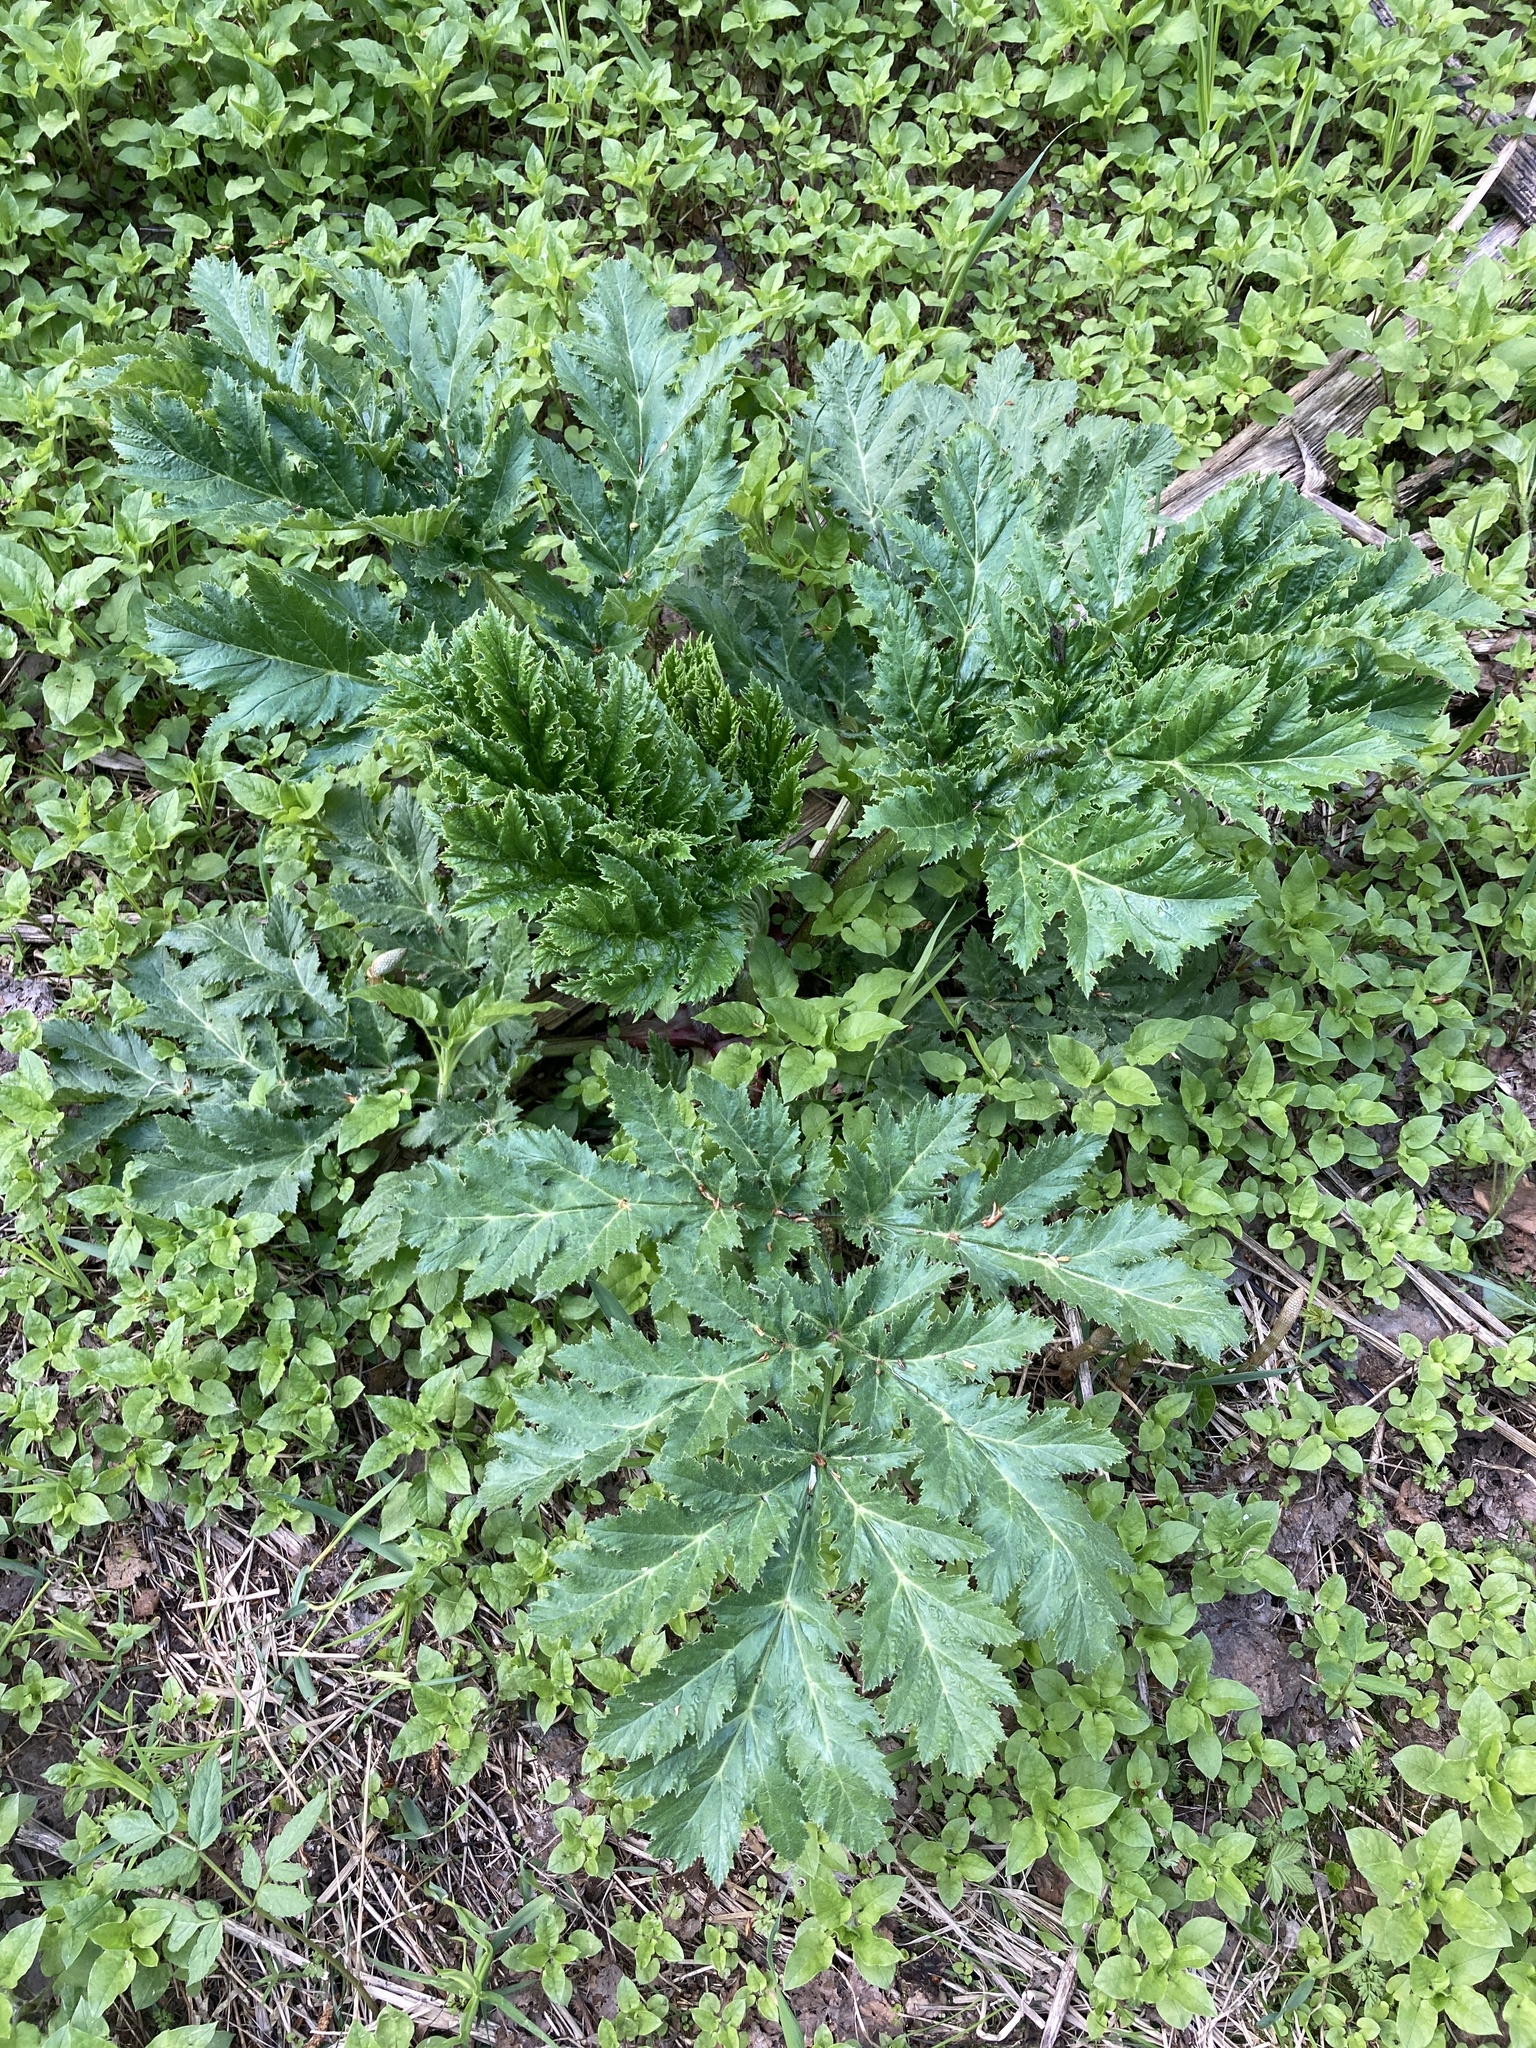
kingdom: Plantae
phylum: Tracheophyta
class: Magnoliopsida
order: Apiales
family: Apiaceae
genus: Heracleum
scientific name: Heracleum sosnowskyi
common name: Sosnowsky's hogweed
